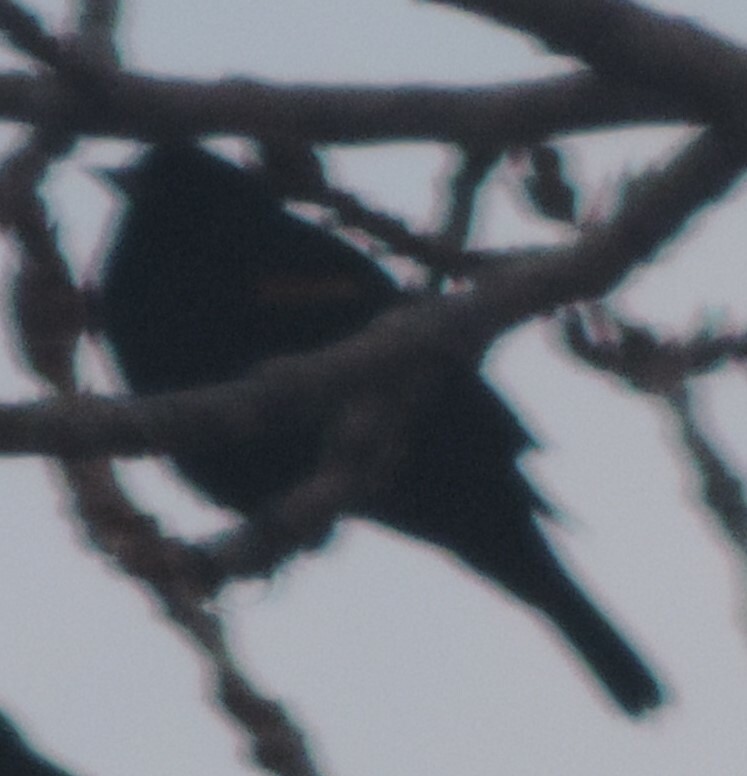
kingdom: Animalia
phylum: Chordata
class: Aves
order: Passeriformes
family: Icteridae
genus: Agelaius
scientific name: Agelaius phoeniceus
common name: Red-winged blackbird
